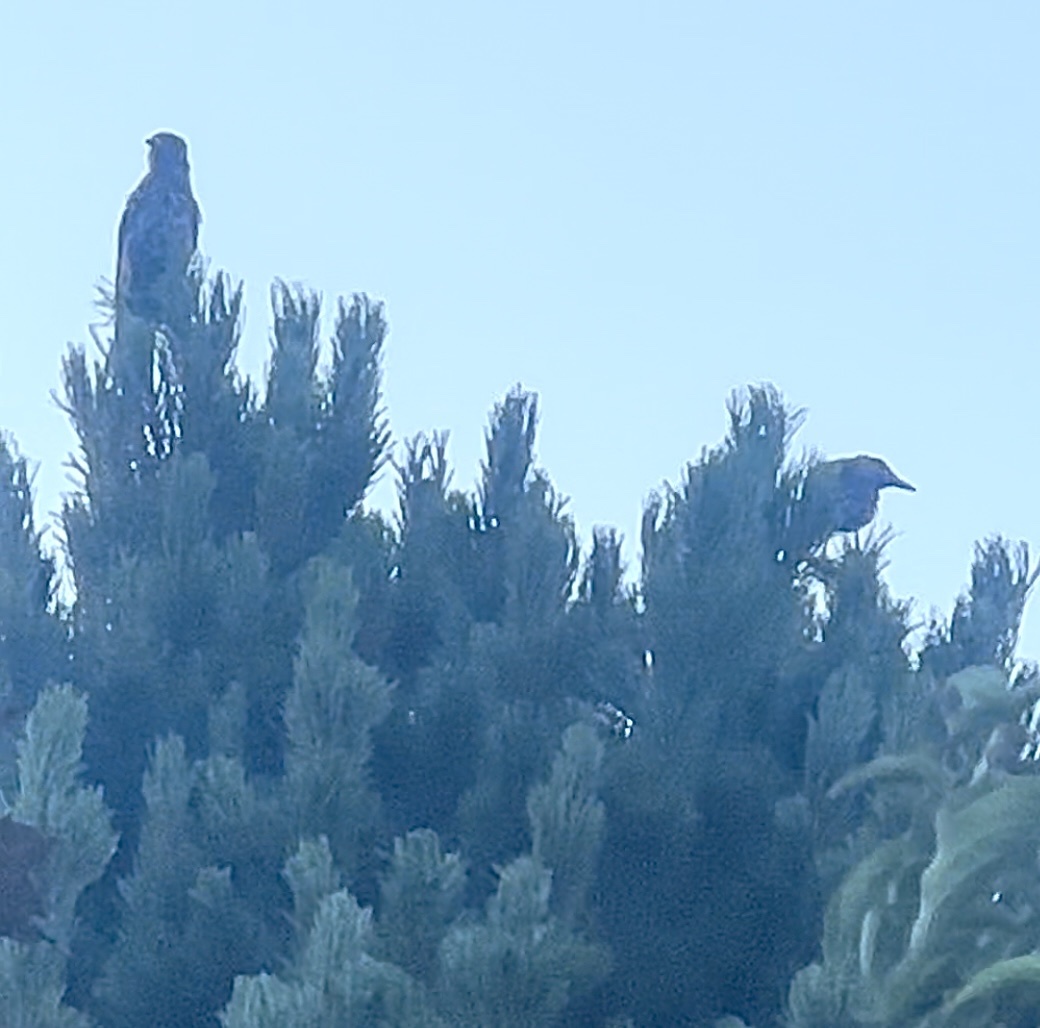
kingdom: Animalia
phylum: Chordata
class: Aves
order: Passeriformes
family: Corvidae
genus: Nucifraga
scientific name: Nucifraga caryocatactes
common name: Spotted nutcracker
